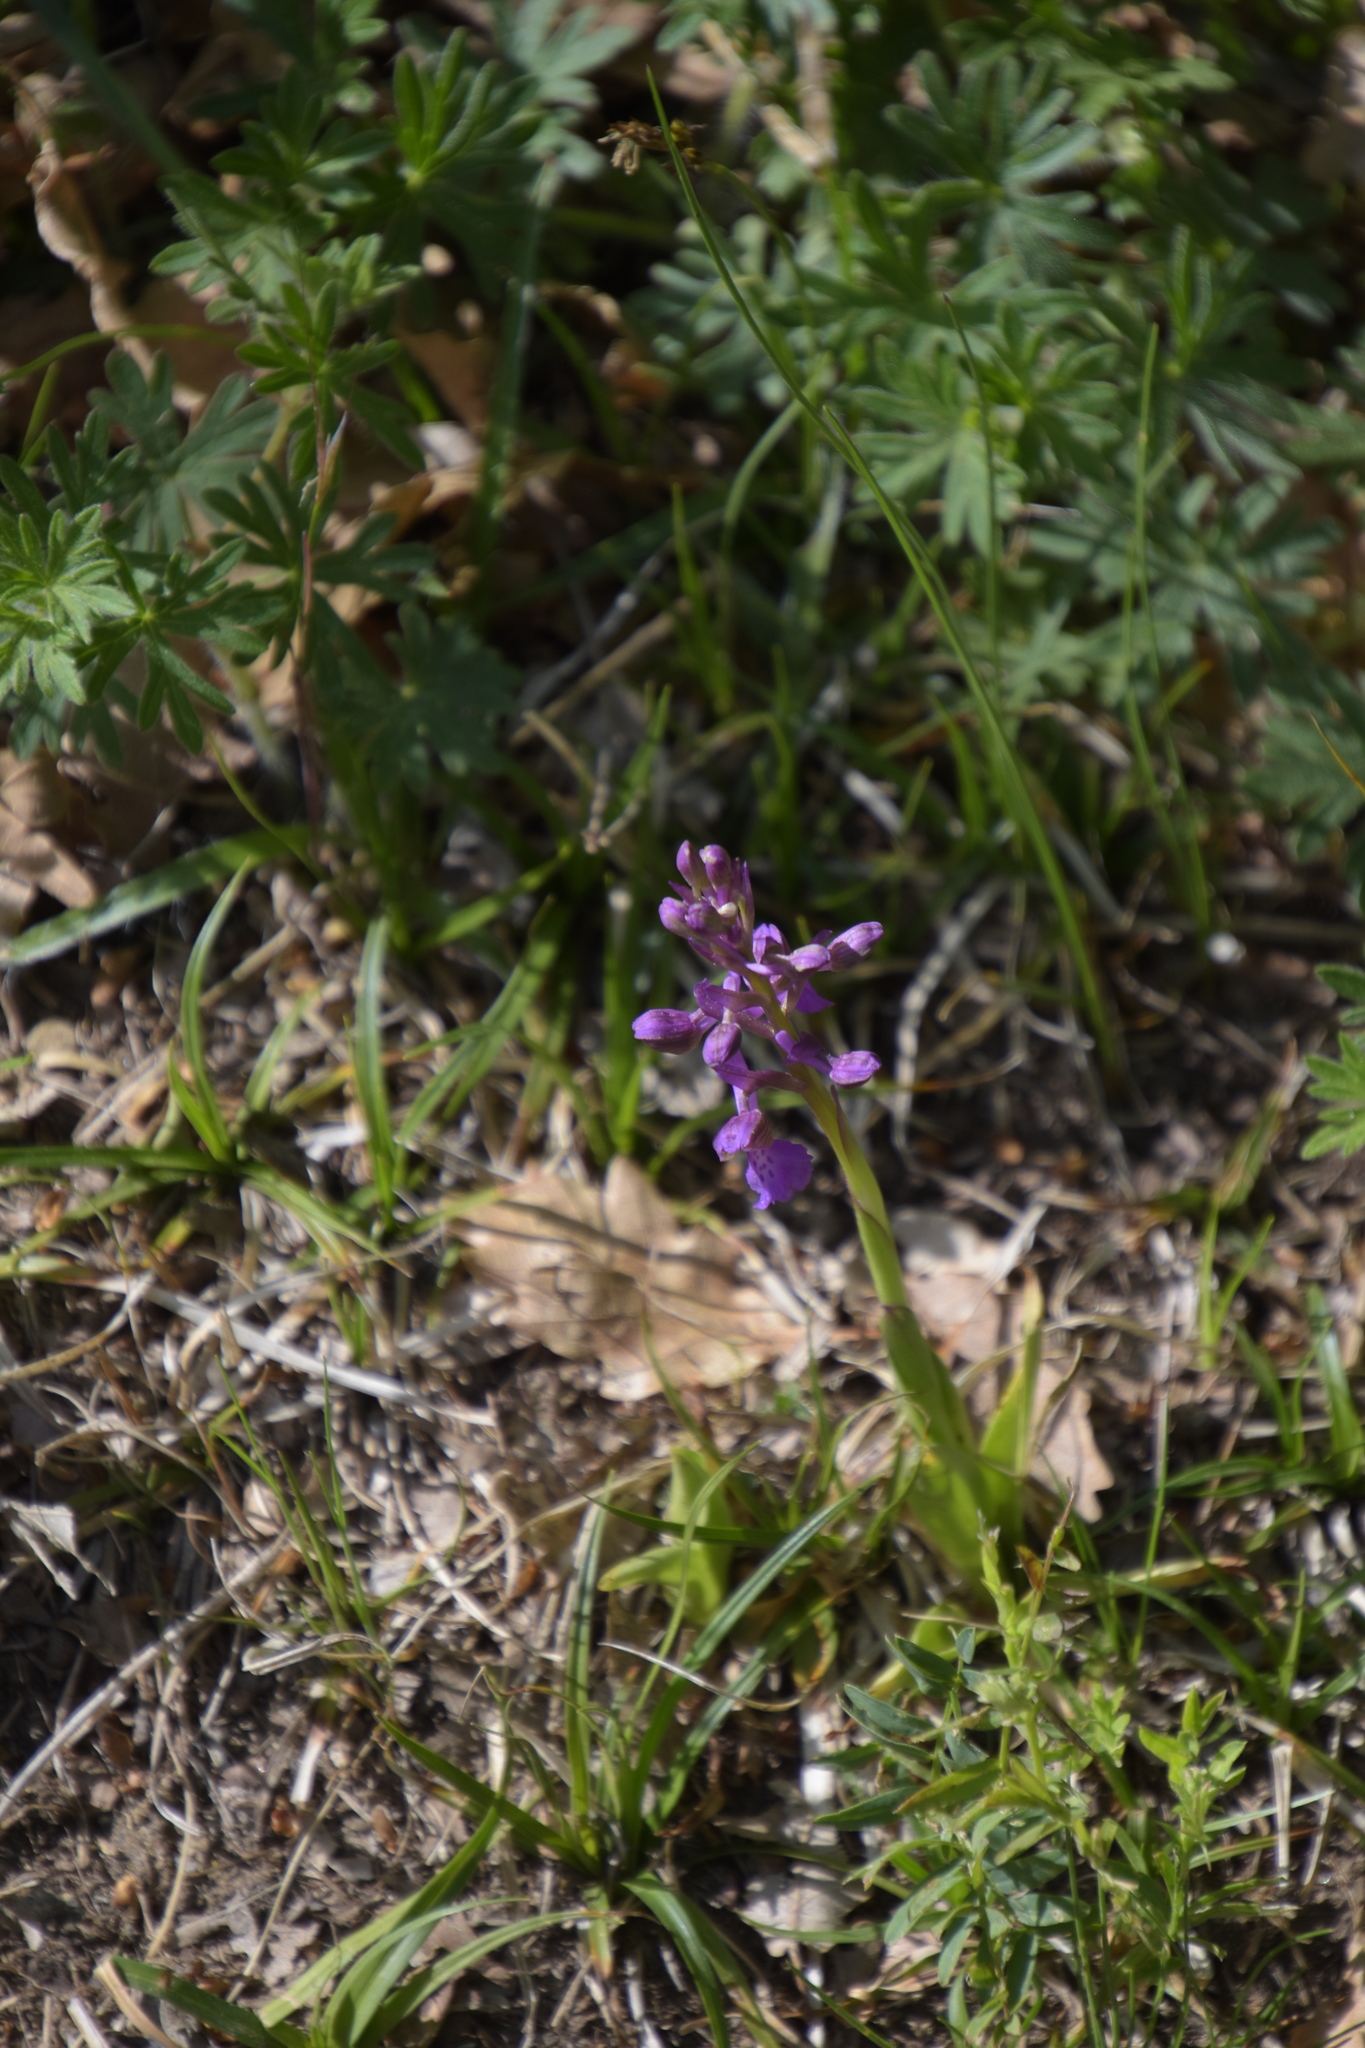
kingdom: Plantae
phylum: Tracheophyta
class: Liliopsida
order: Asparagales
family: Orchidaceae
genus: Anacamptis
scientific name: Anacamptis morio
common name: Green-winged orchid
